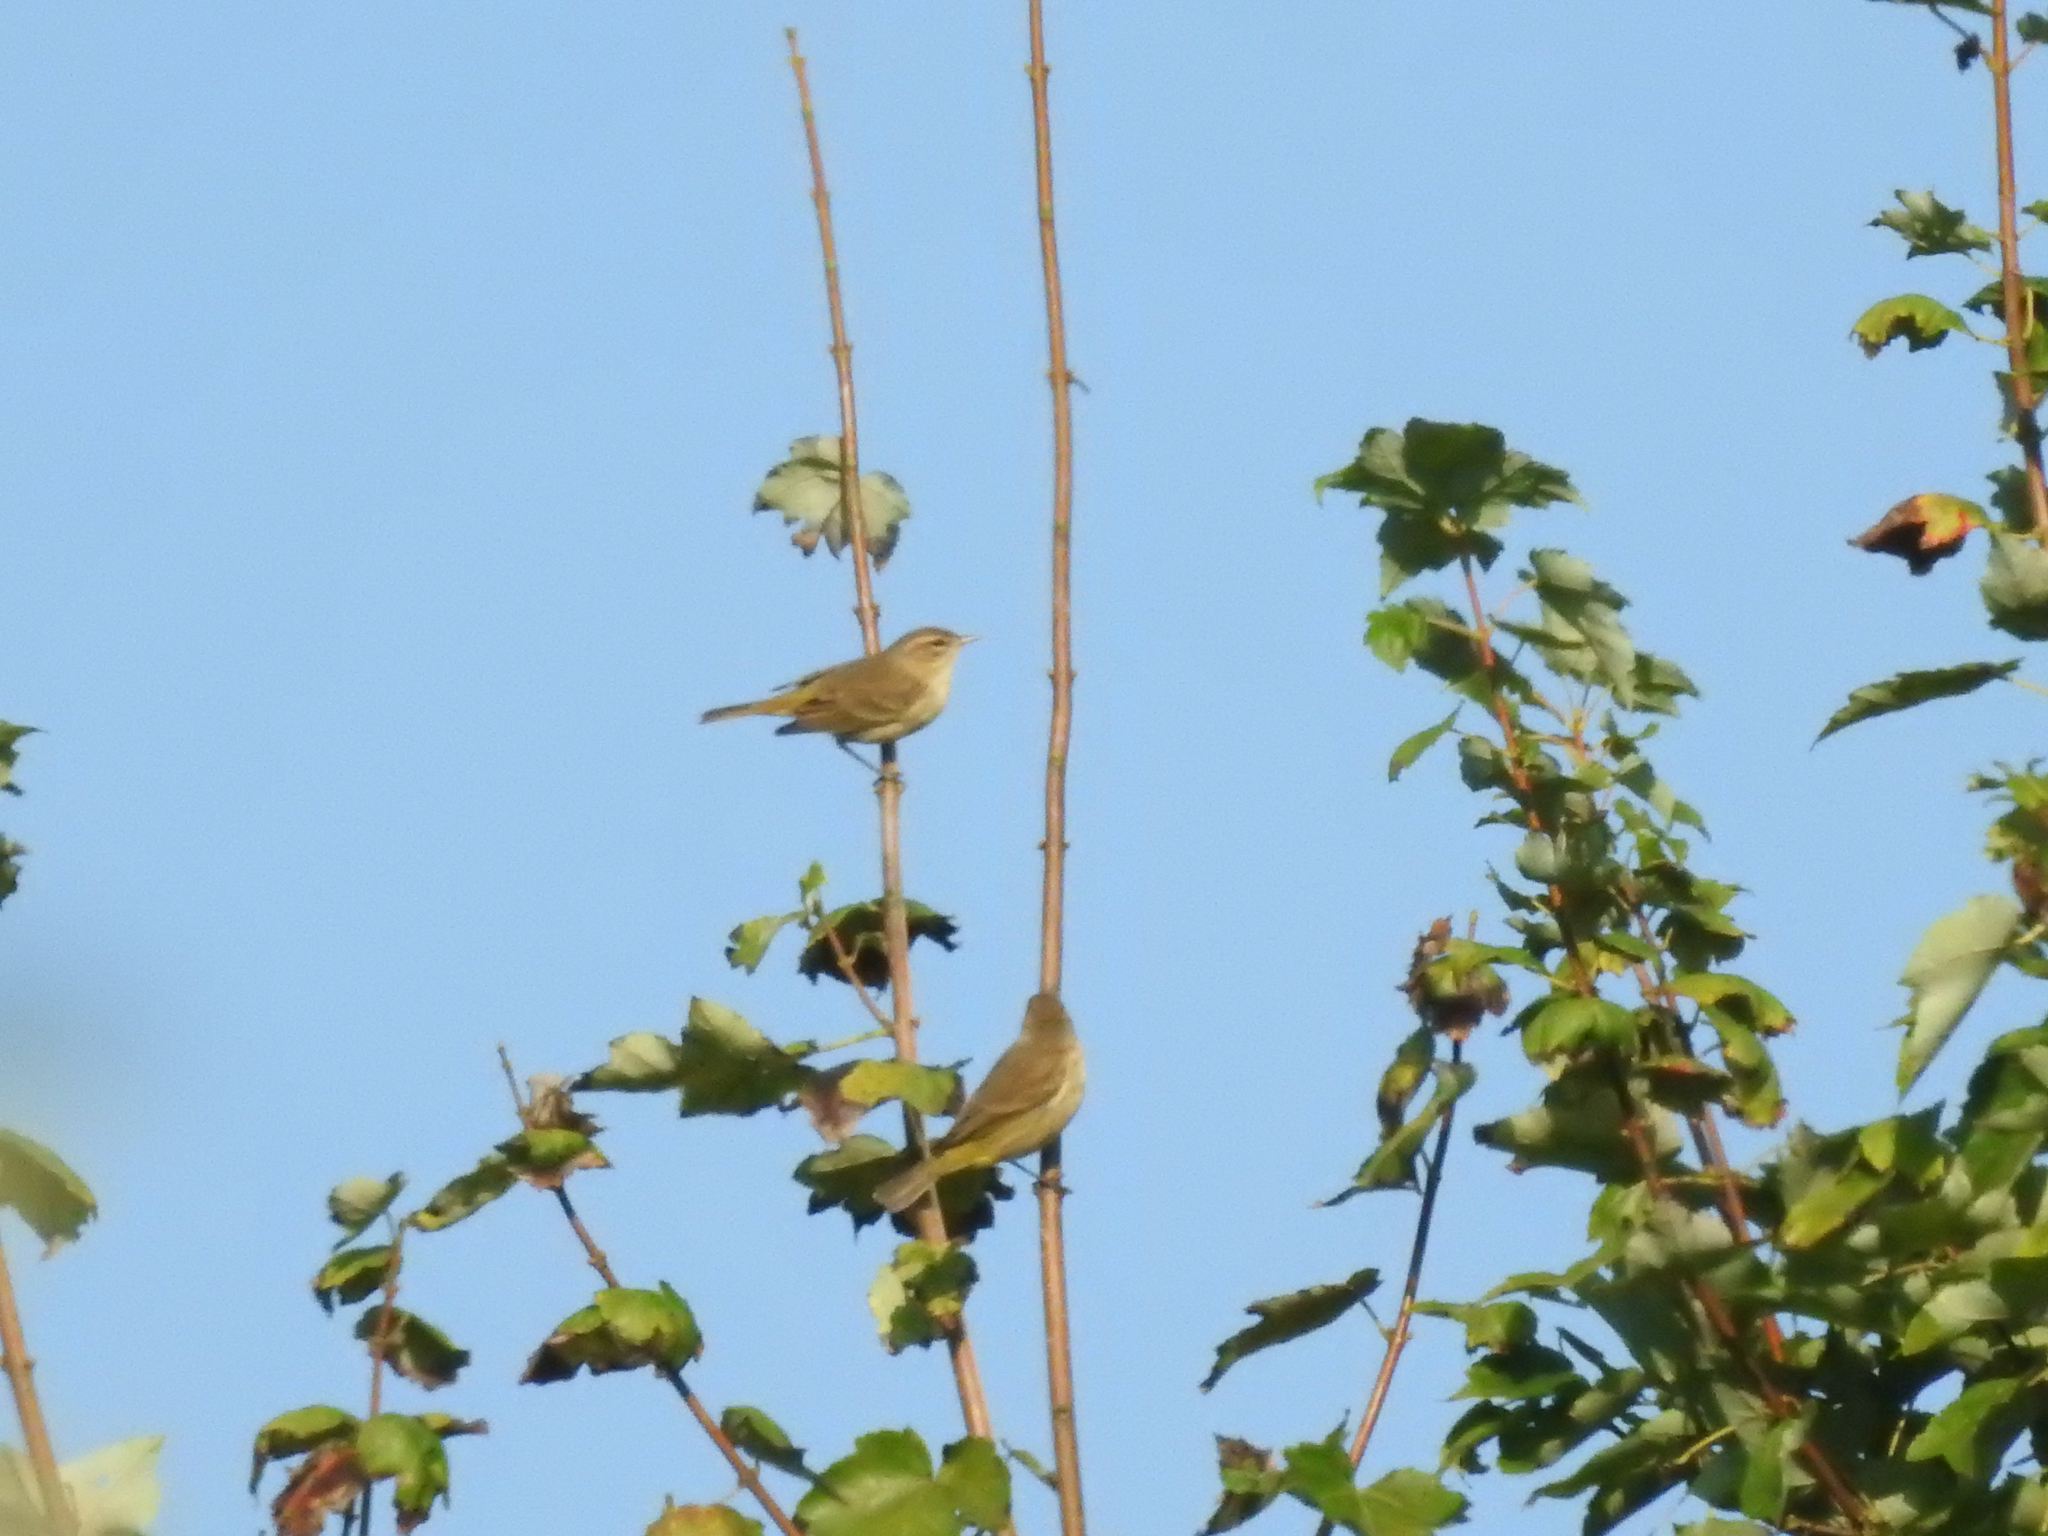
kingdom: Animalia
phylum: Chordata
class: Aves
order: Passeriformes
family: Parulidae
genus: Setophaga
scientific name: Setophaga palmarum
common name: Palm warbler
